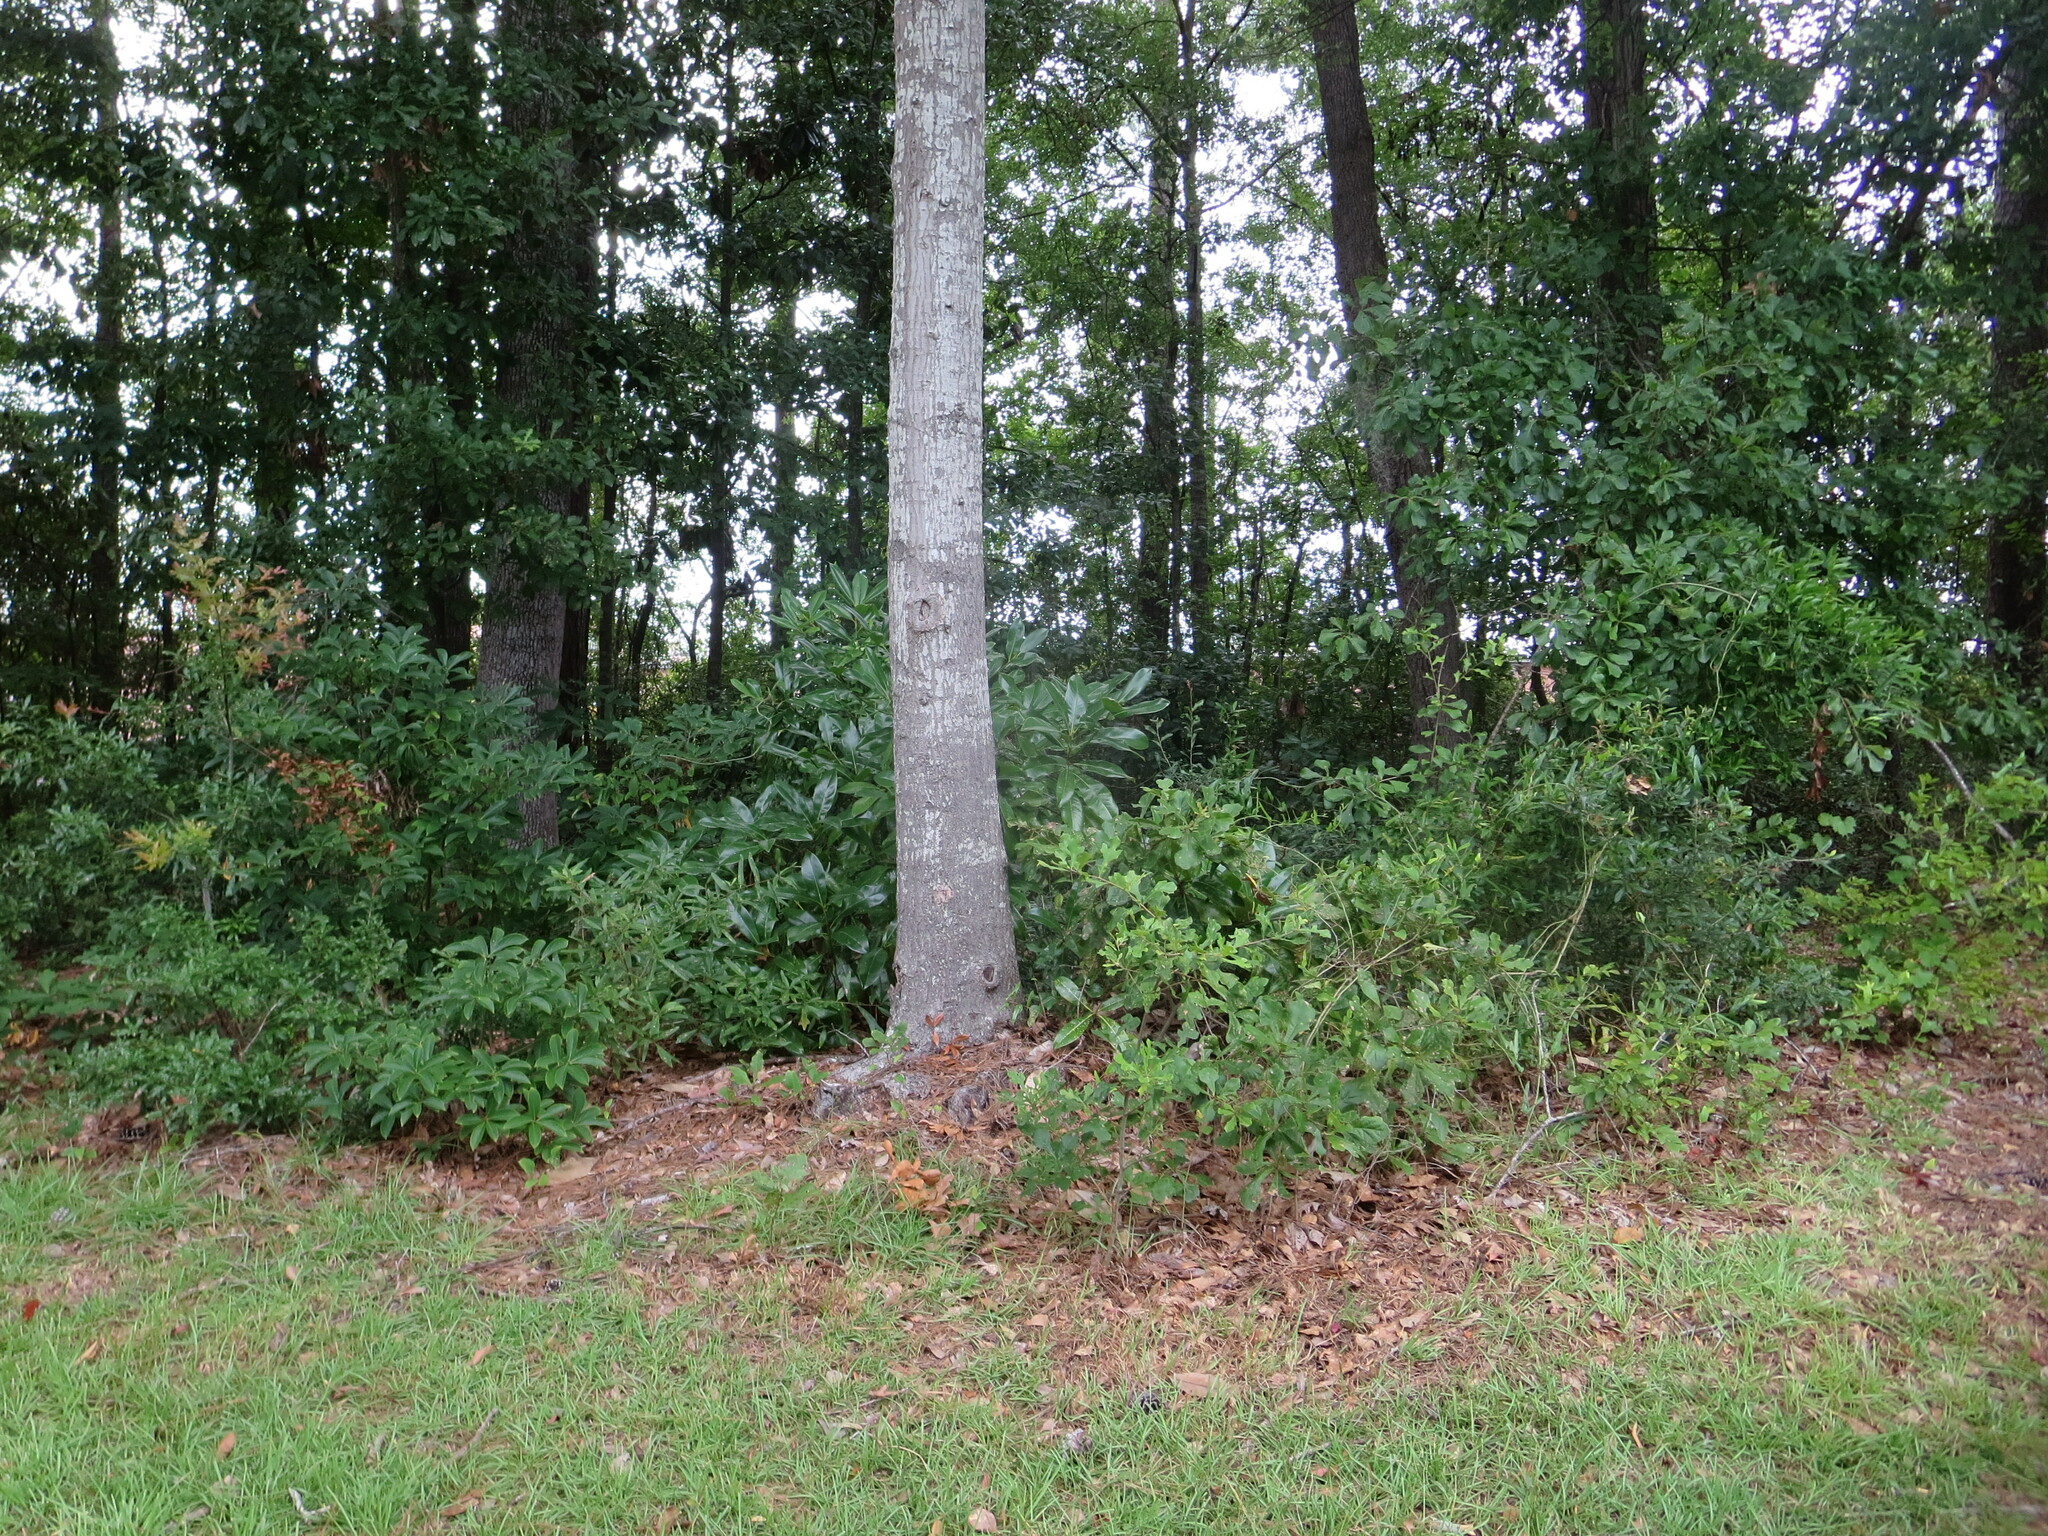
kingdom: Plantae
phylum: Tracheophyta
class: Magnoliopsida
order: Fagales
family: Fagaceae
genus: Quercus
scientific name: Quercus nigra
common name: Water oak
